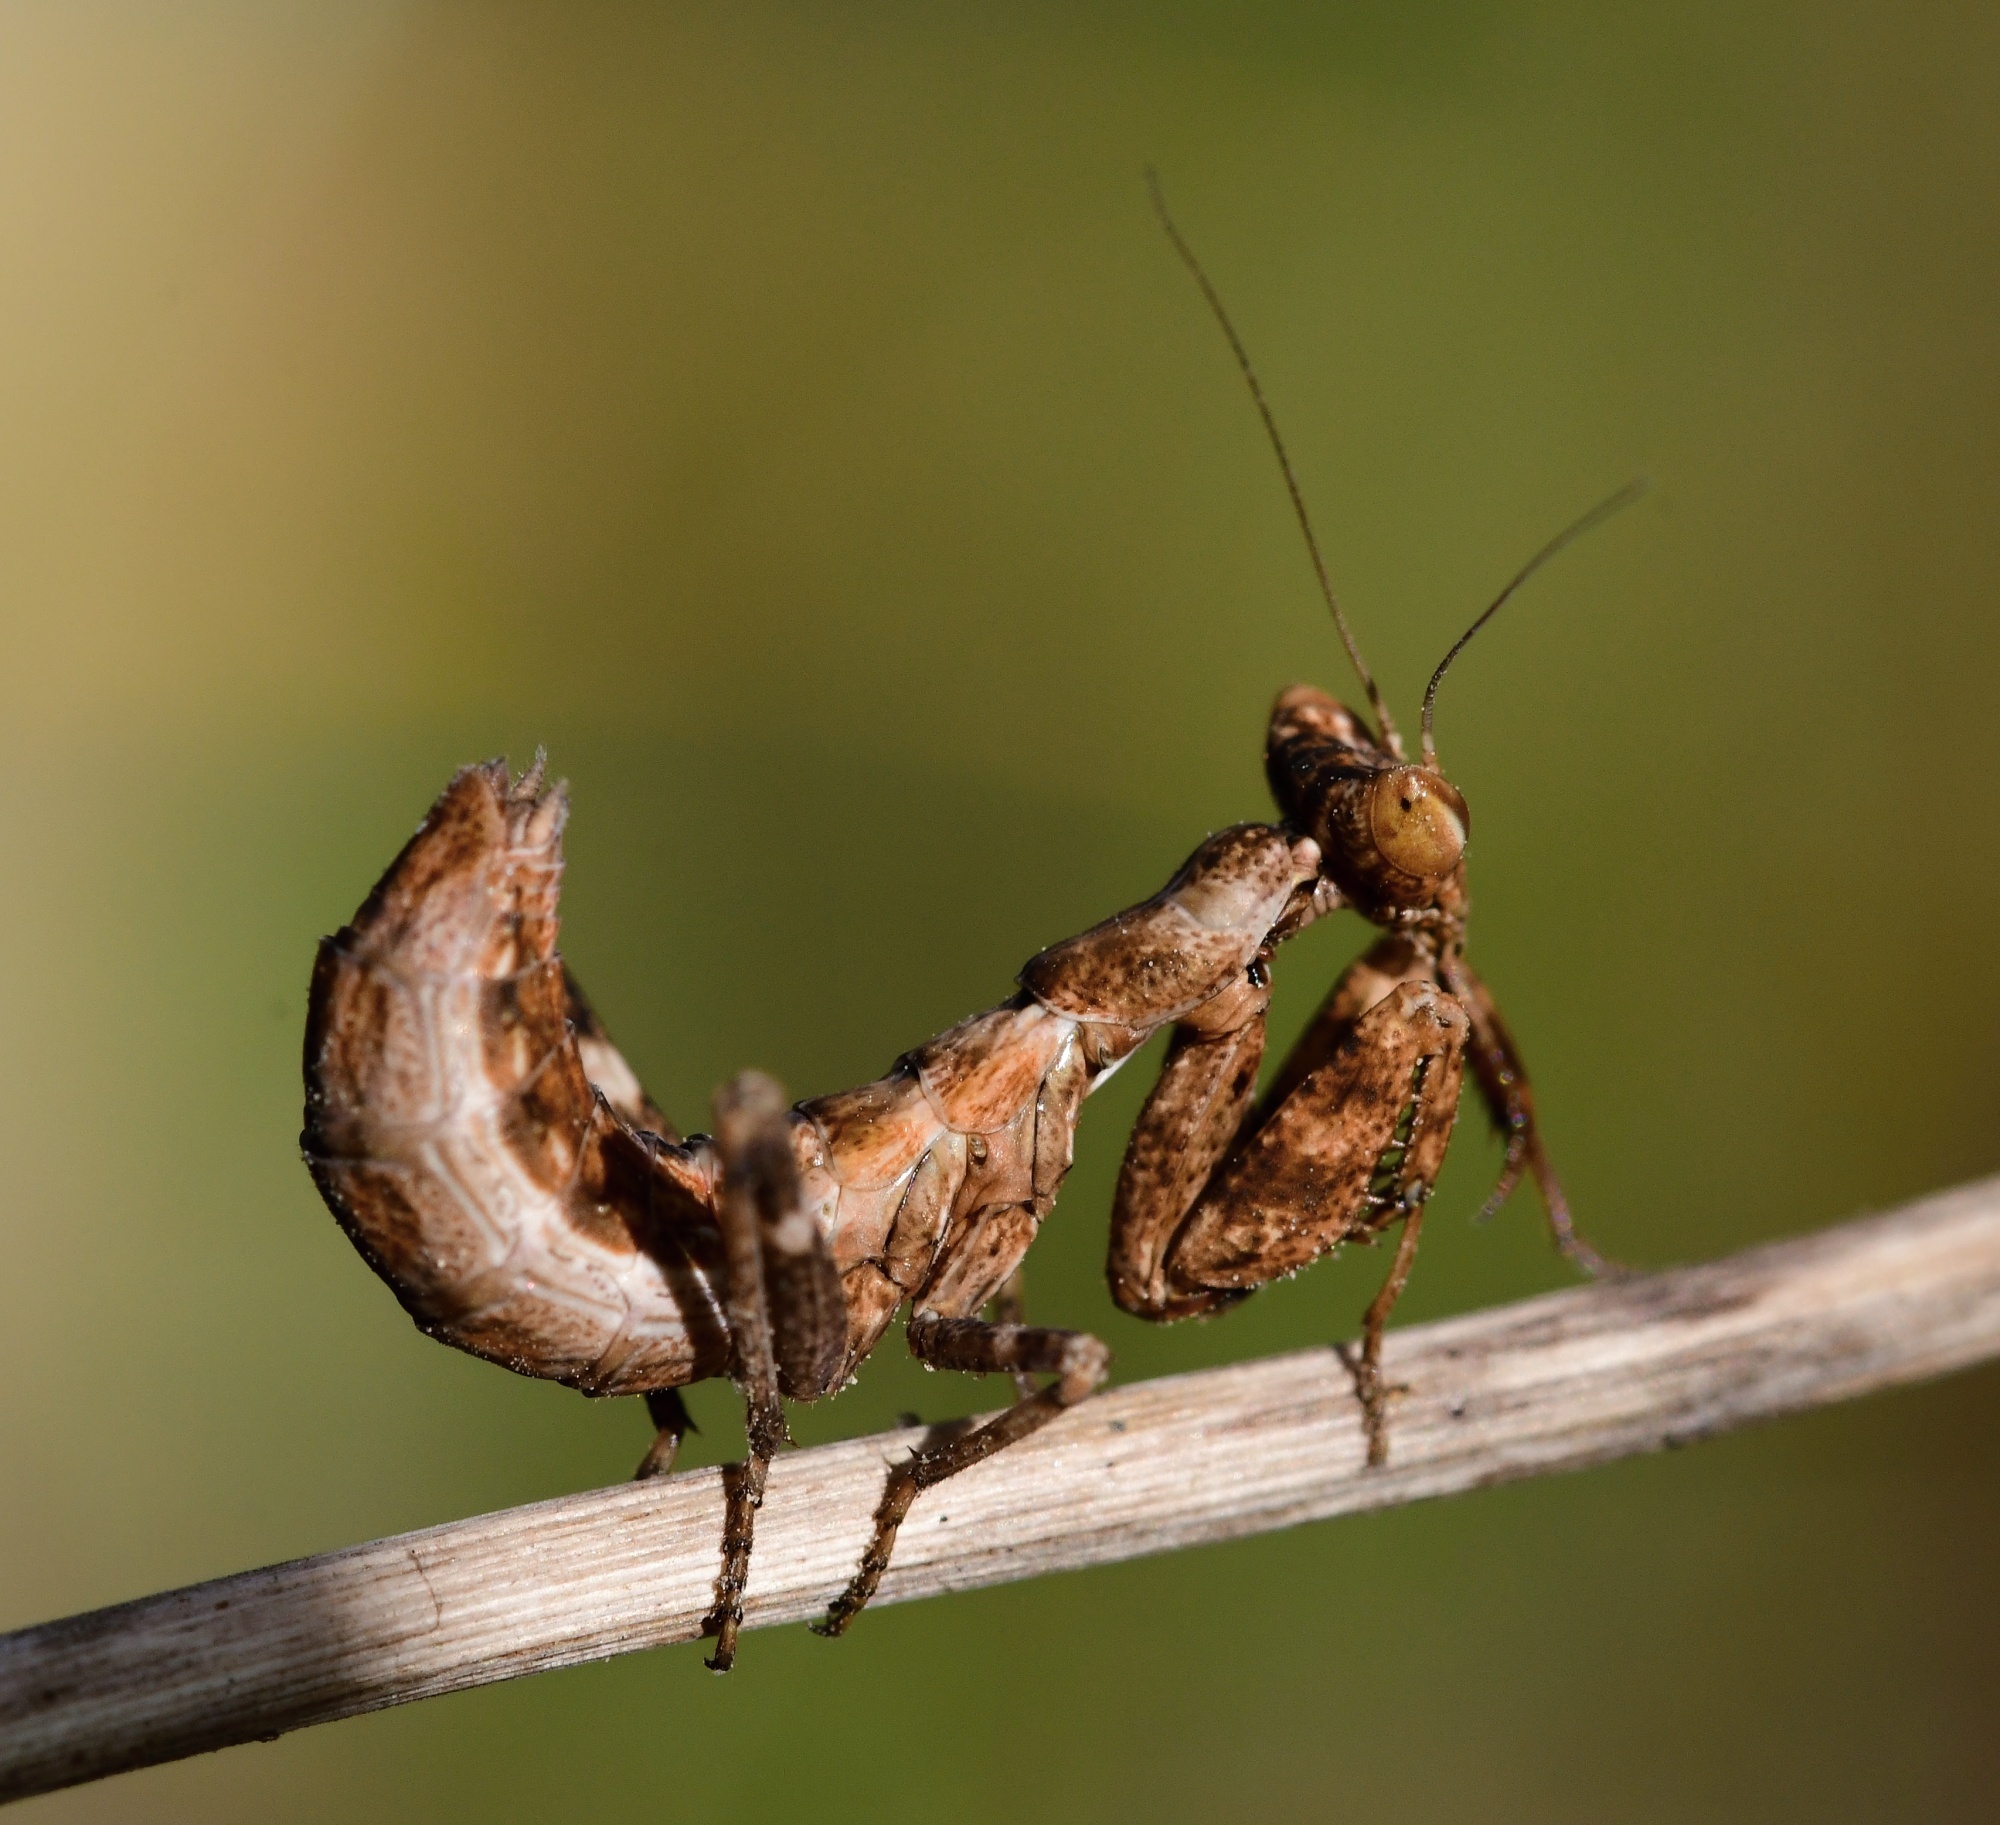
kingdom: Animalia
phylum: Arthropoda
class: Insecta
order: Mantodea
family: Amelidae
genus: Ameles
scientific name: Ameles spallanzania
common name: European dwarf mantis
